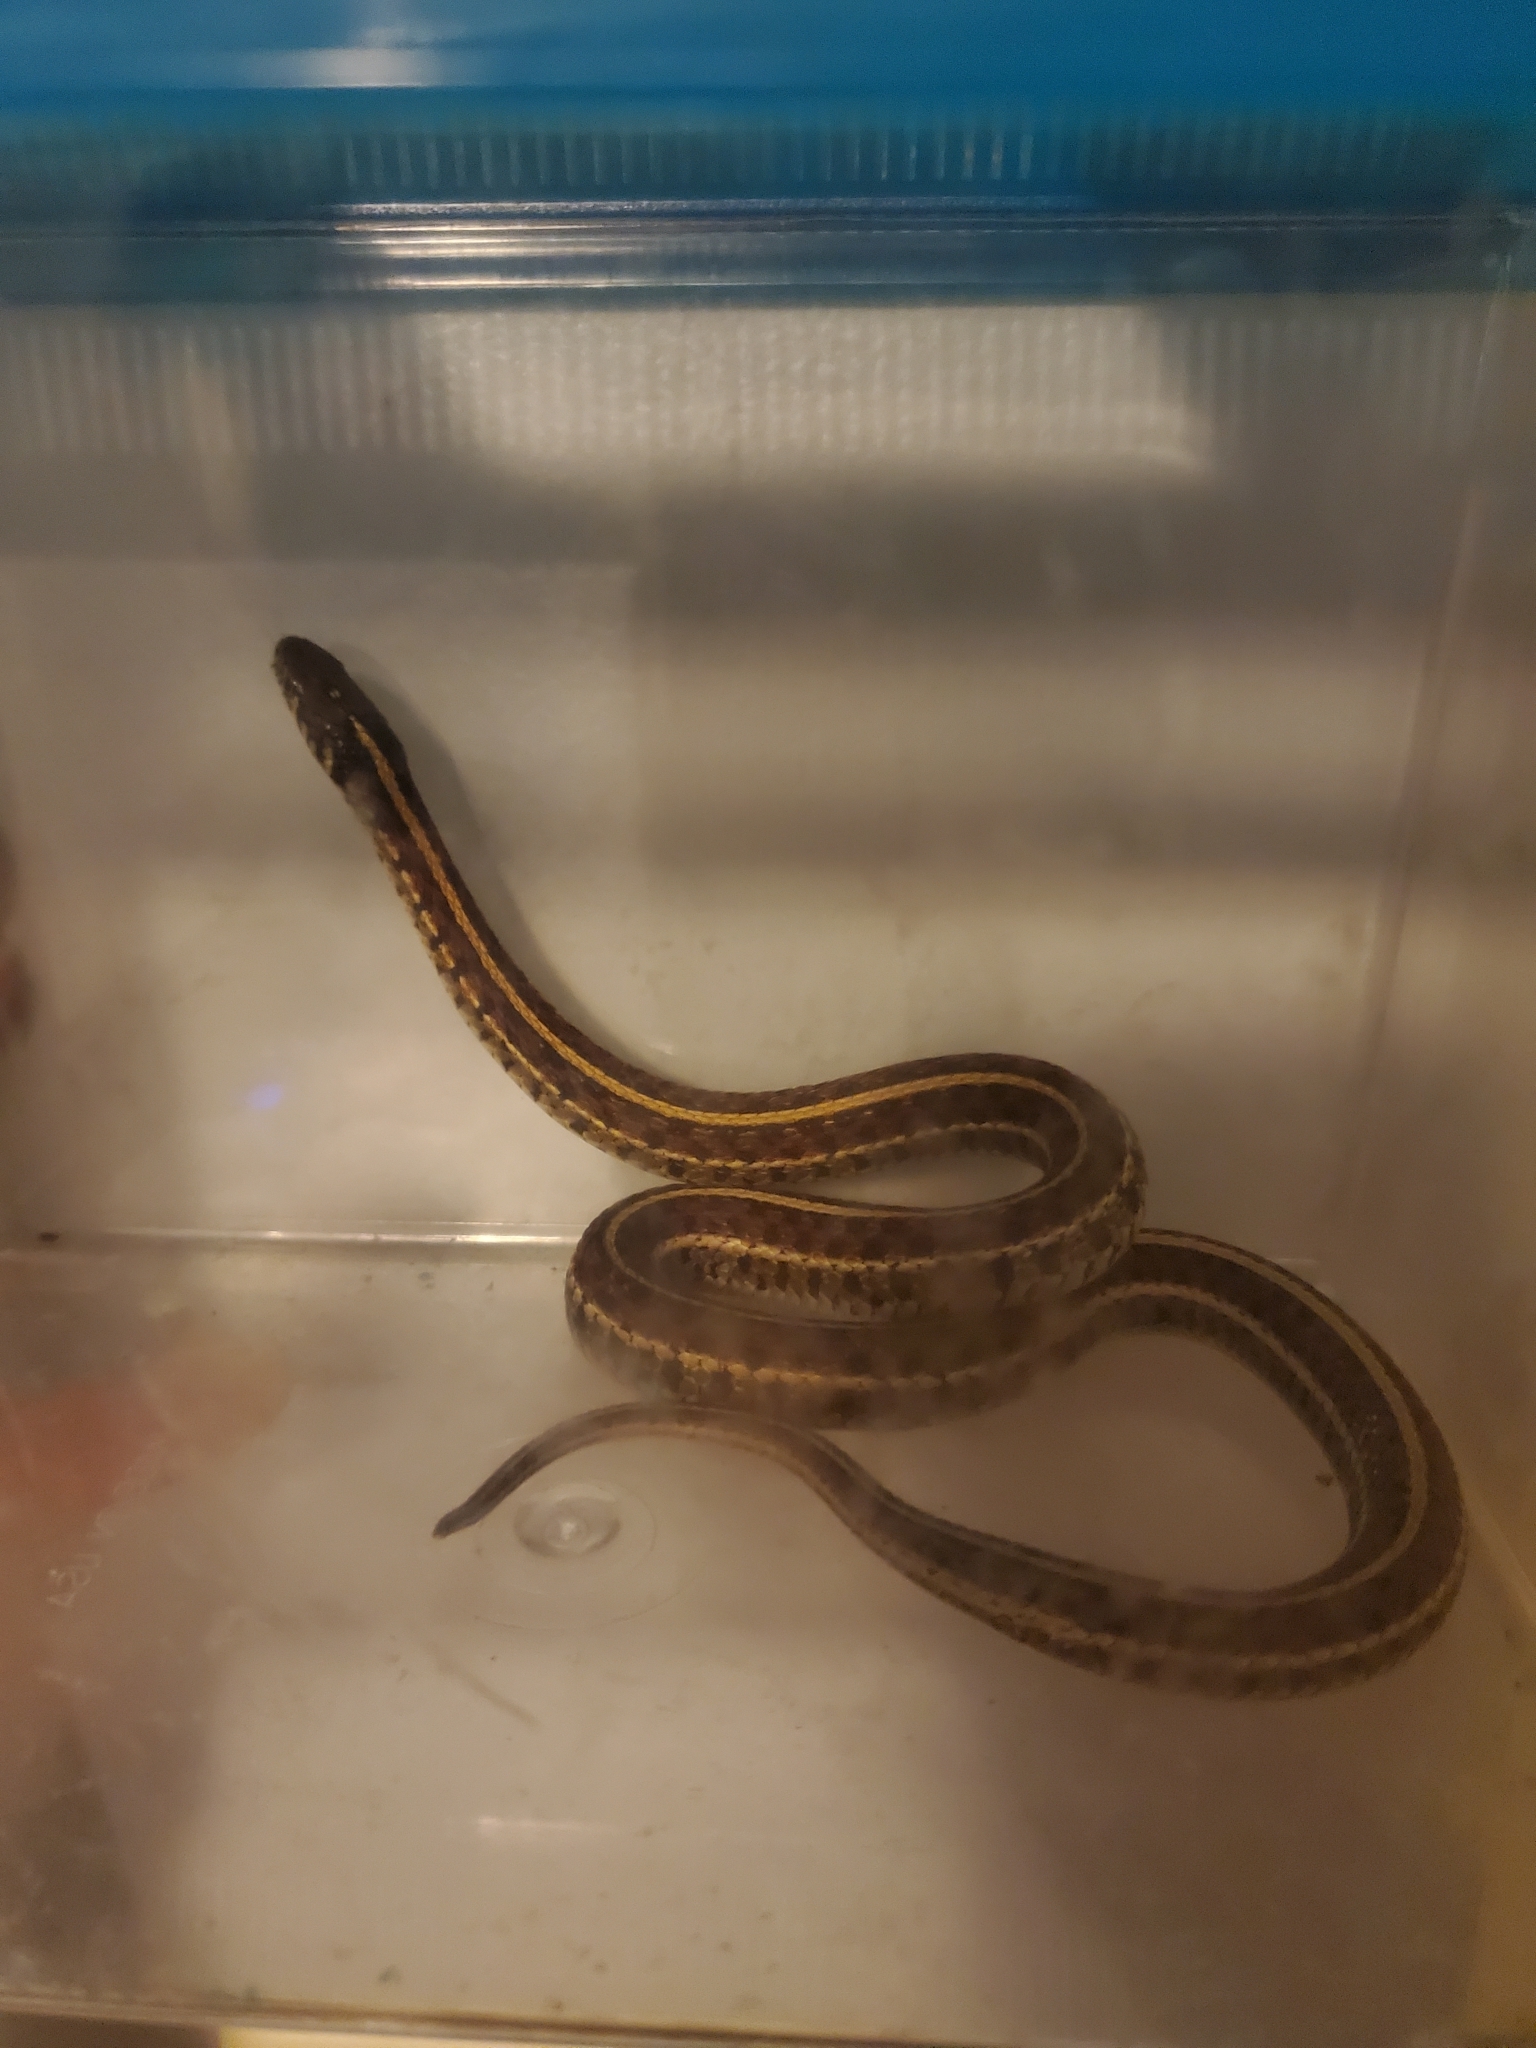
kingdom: Animalia
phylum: Chordata
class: Squamata
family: Colubridae
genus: Thamnophis
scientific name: Thamnophis radix
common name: Plains garter snake
